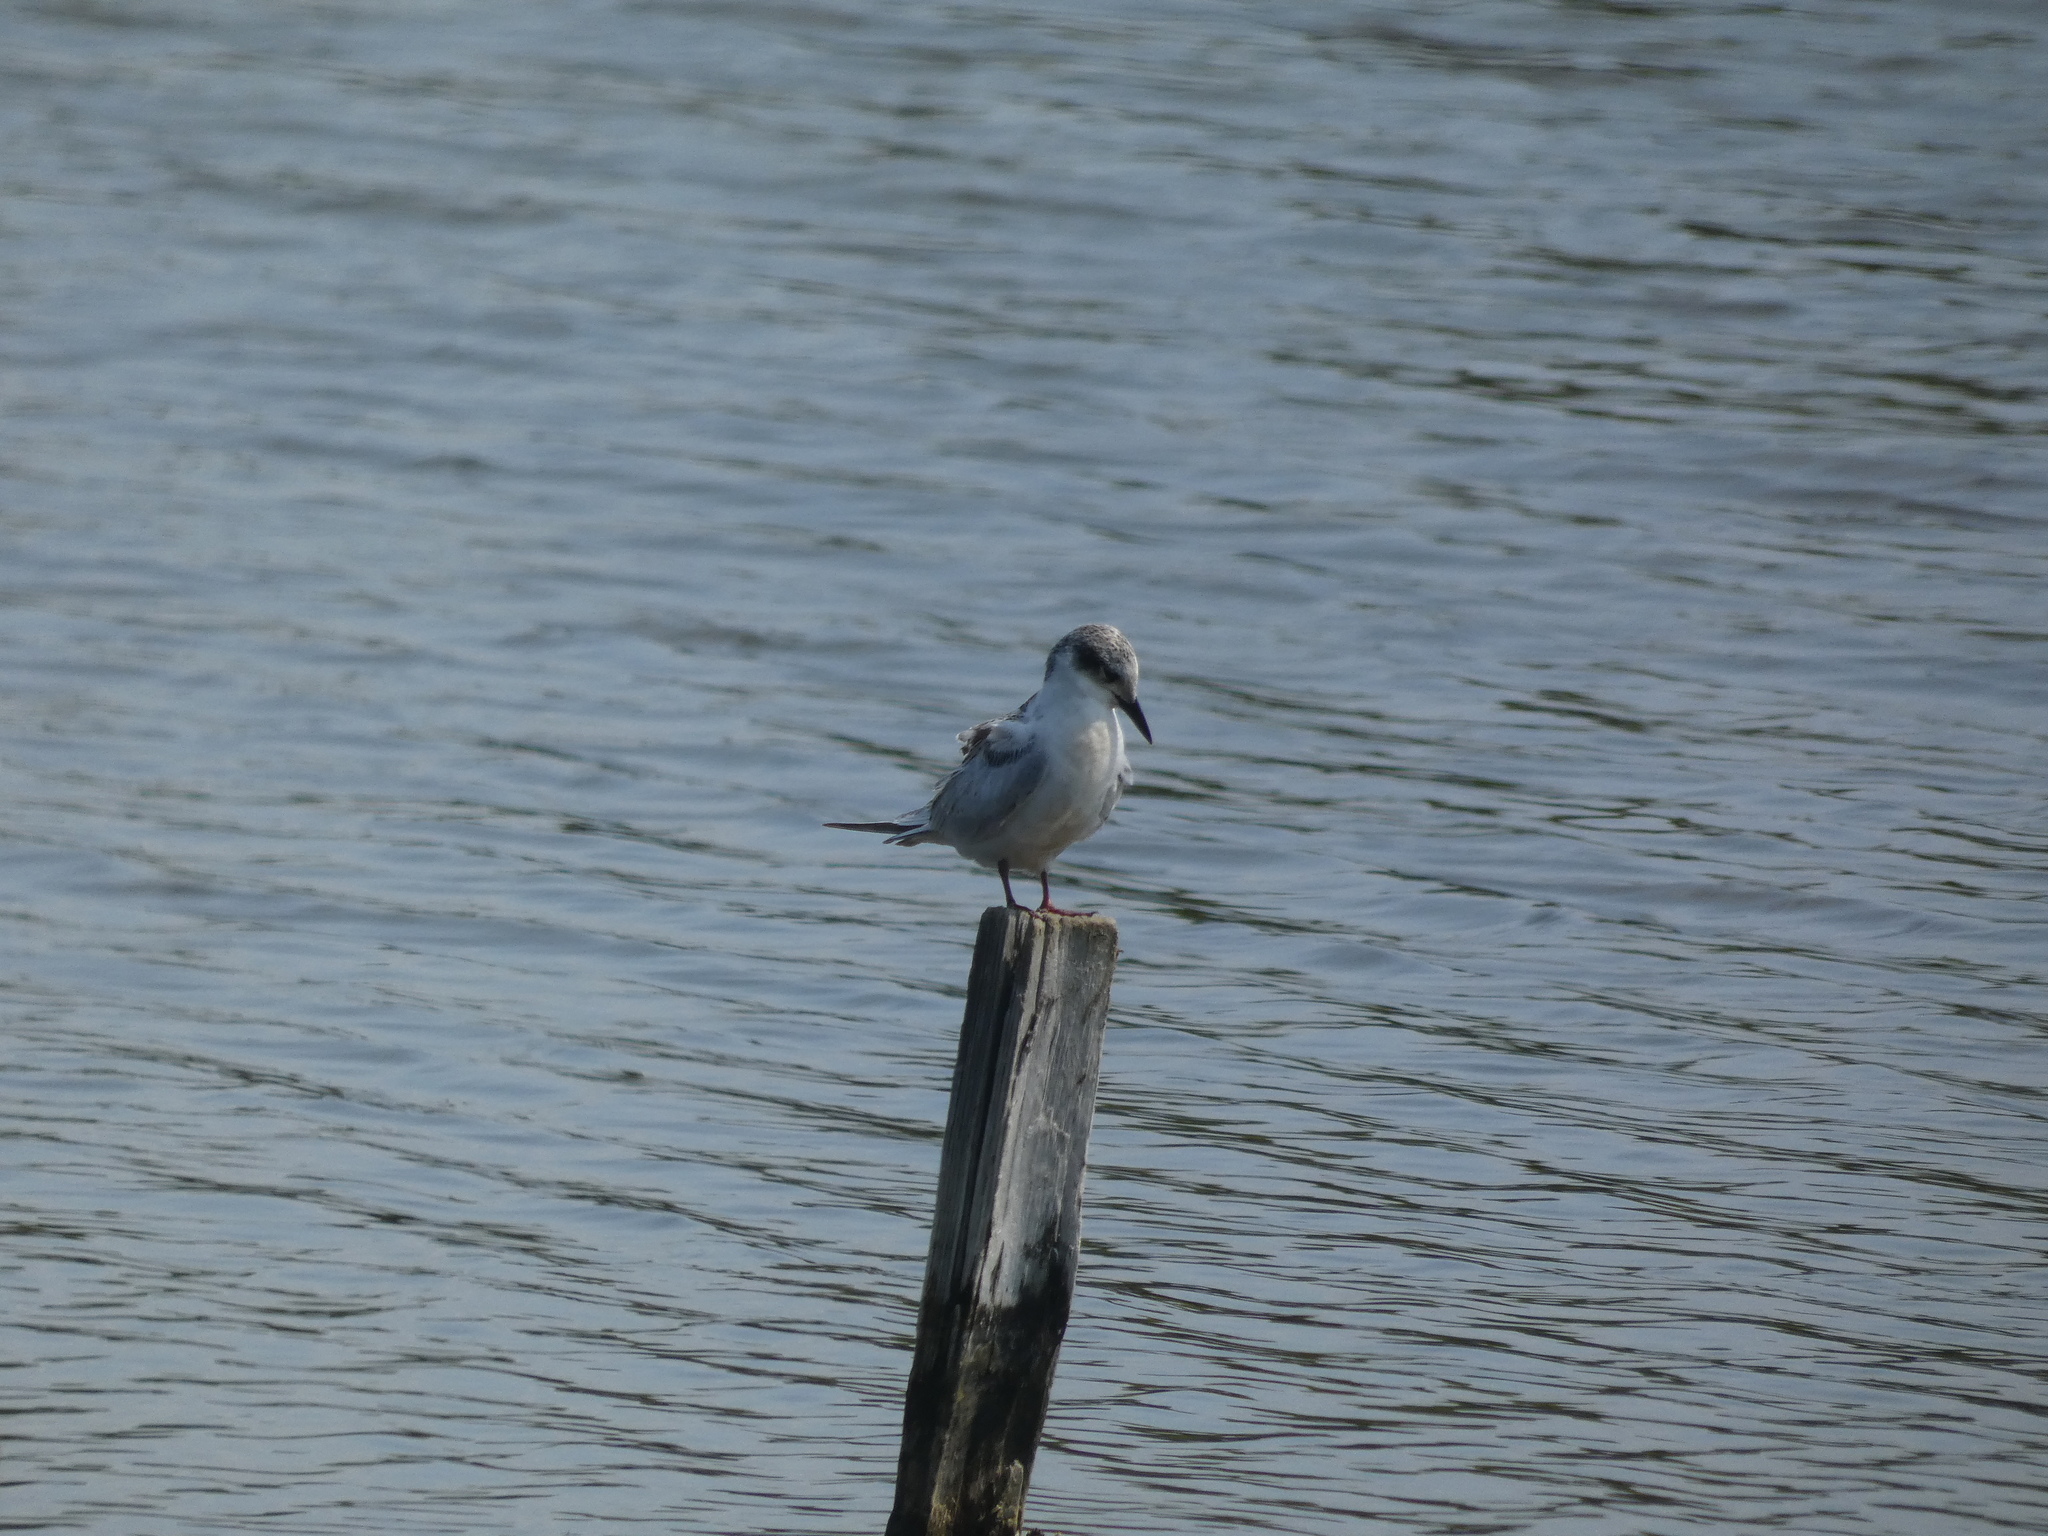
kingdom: Animalia
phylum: Chordata
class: Aves
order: Charadriiformes
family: Laridae
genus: Chlidonias
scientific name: Chlidonias hybrida
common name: Whiskered tern
